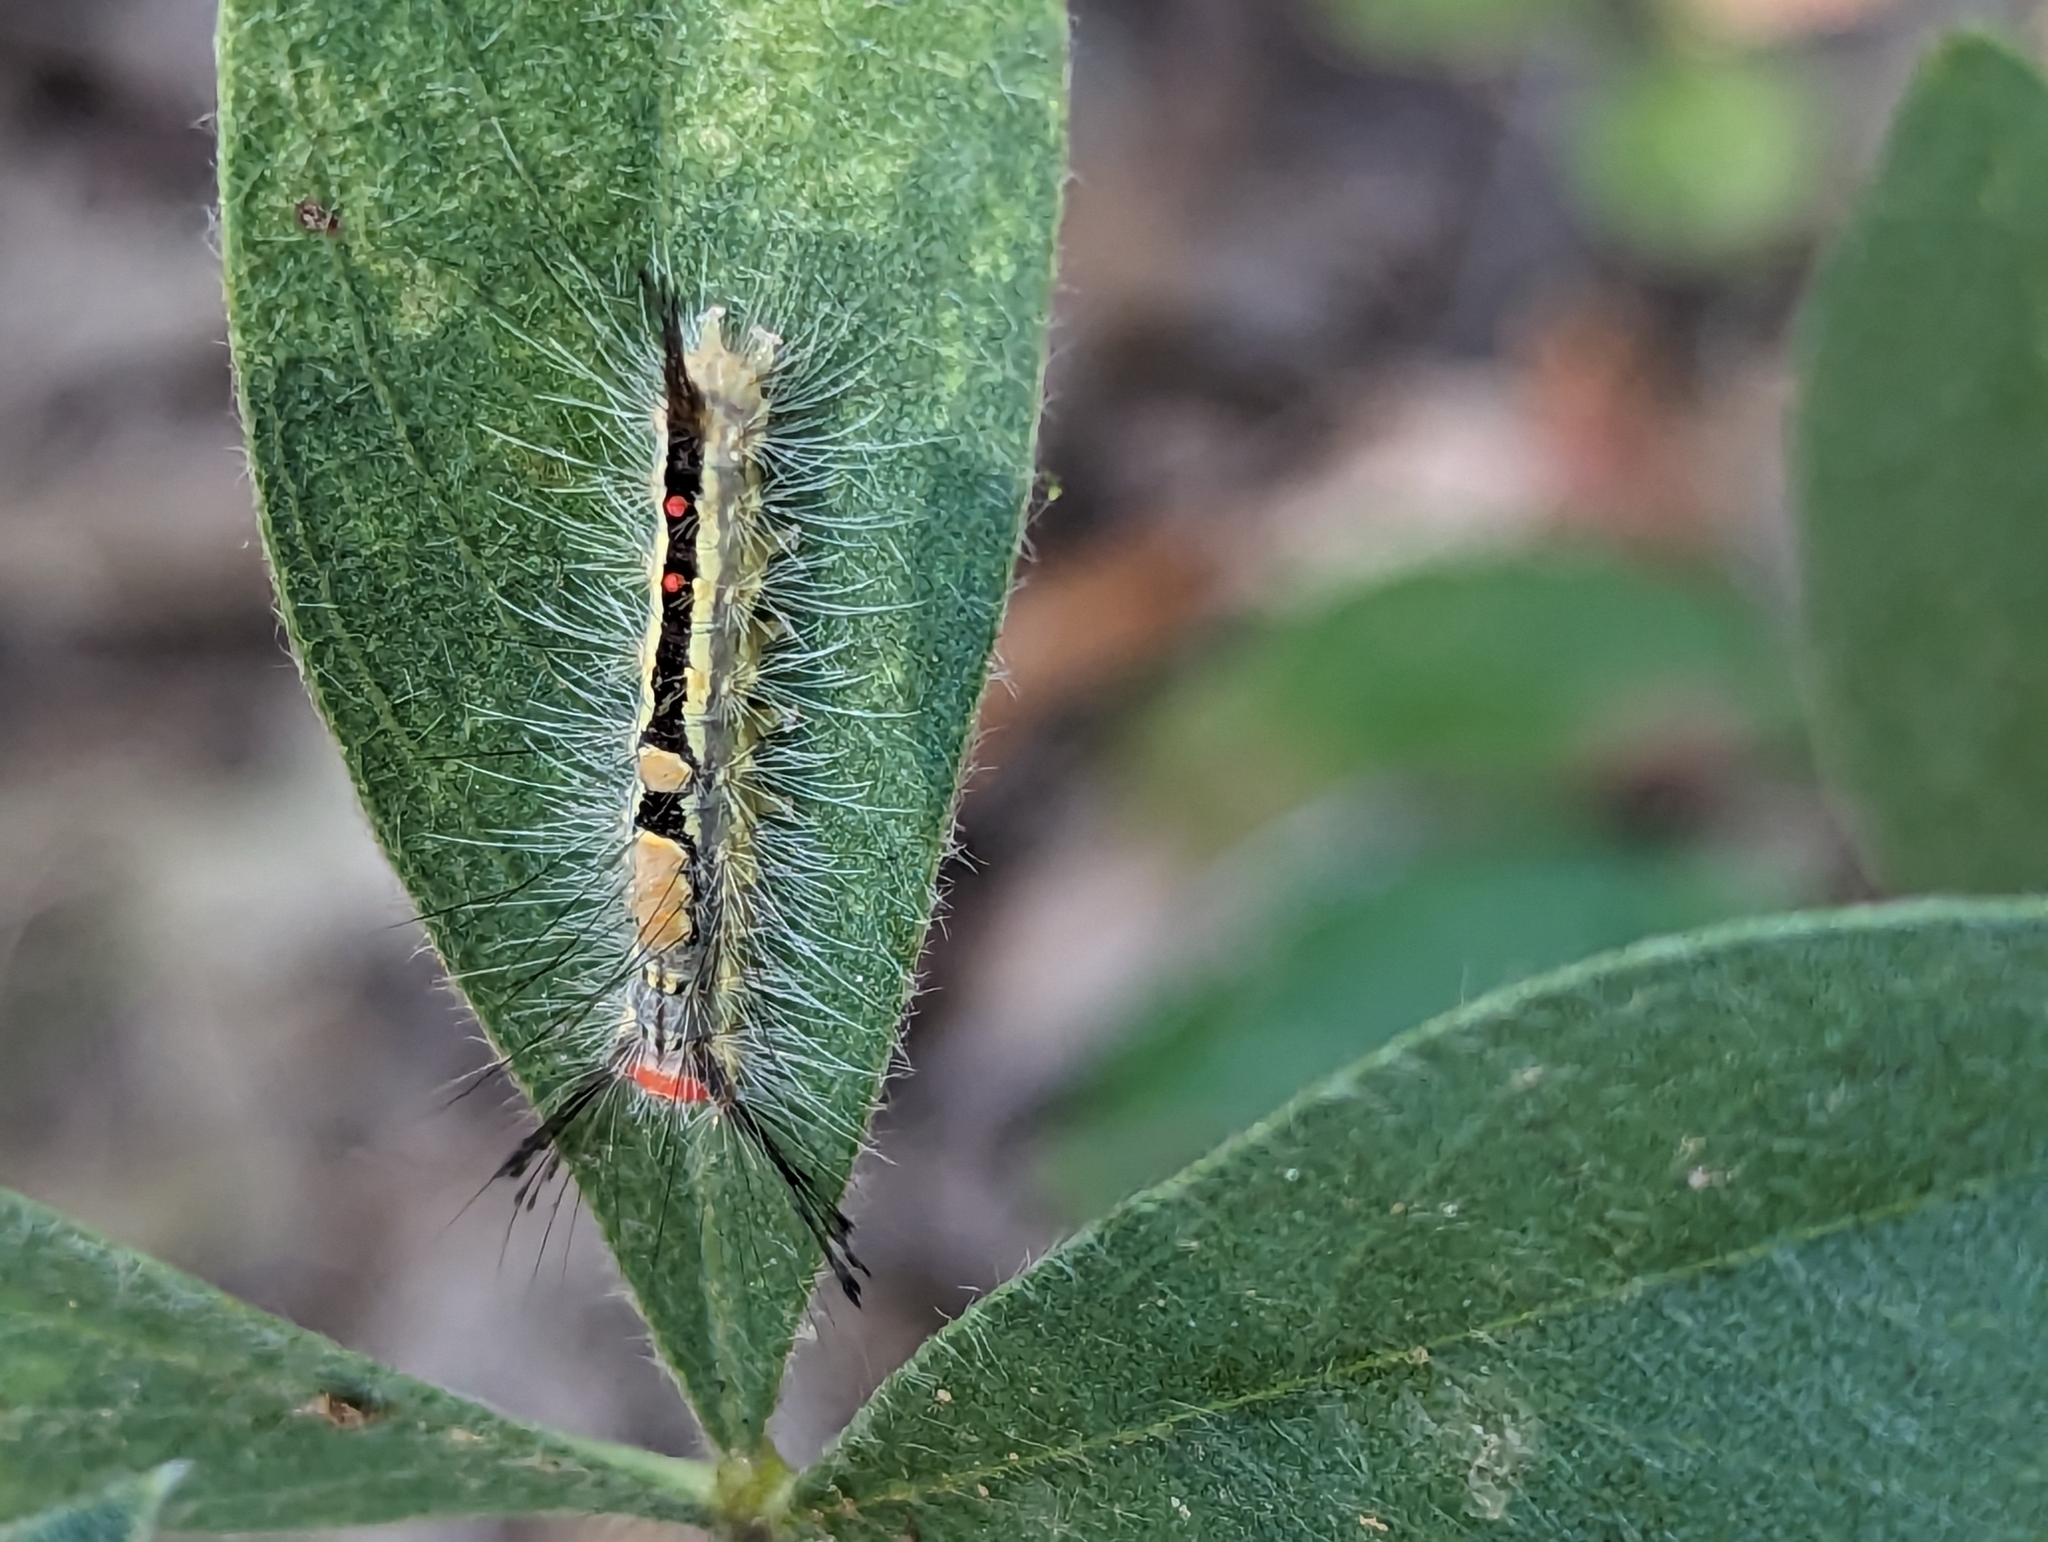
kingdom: Animalia
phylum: Arthropoda
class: Insecta
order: Lepidoptera
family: Erebidae
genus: Orgyia
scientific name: Orgyia leucostigma
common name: White-marked tussock moth
